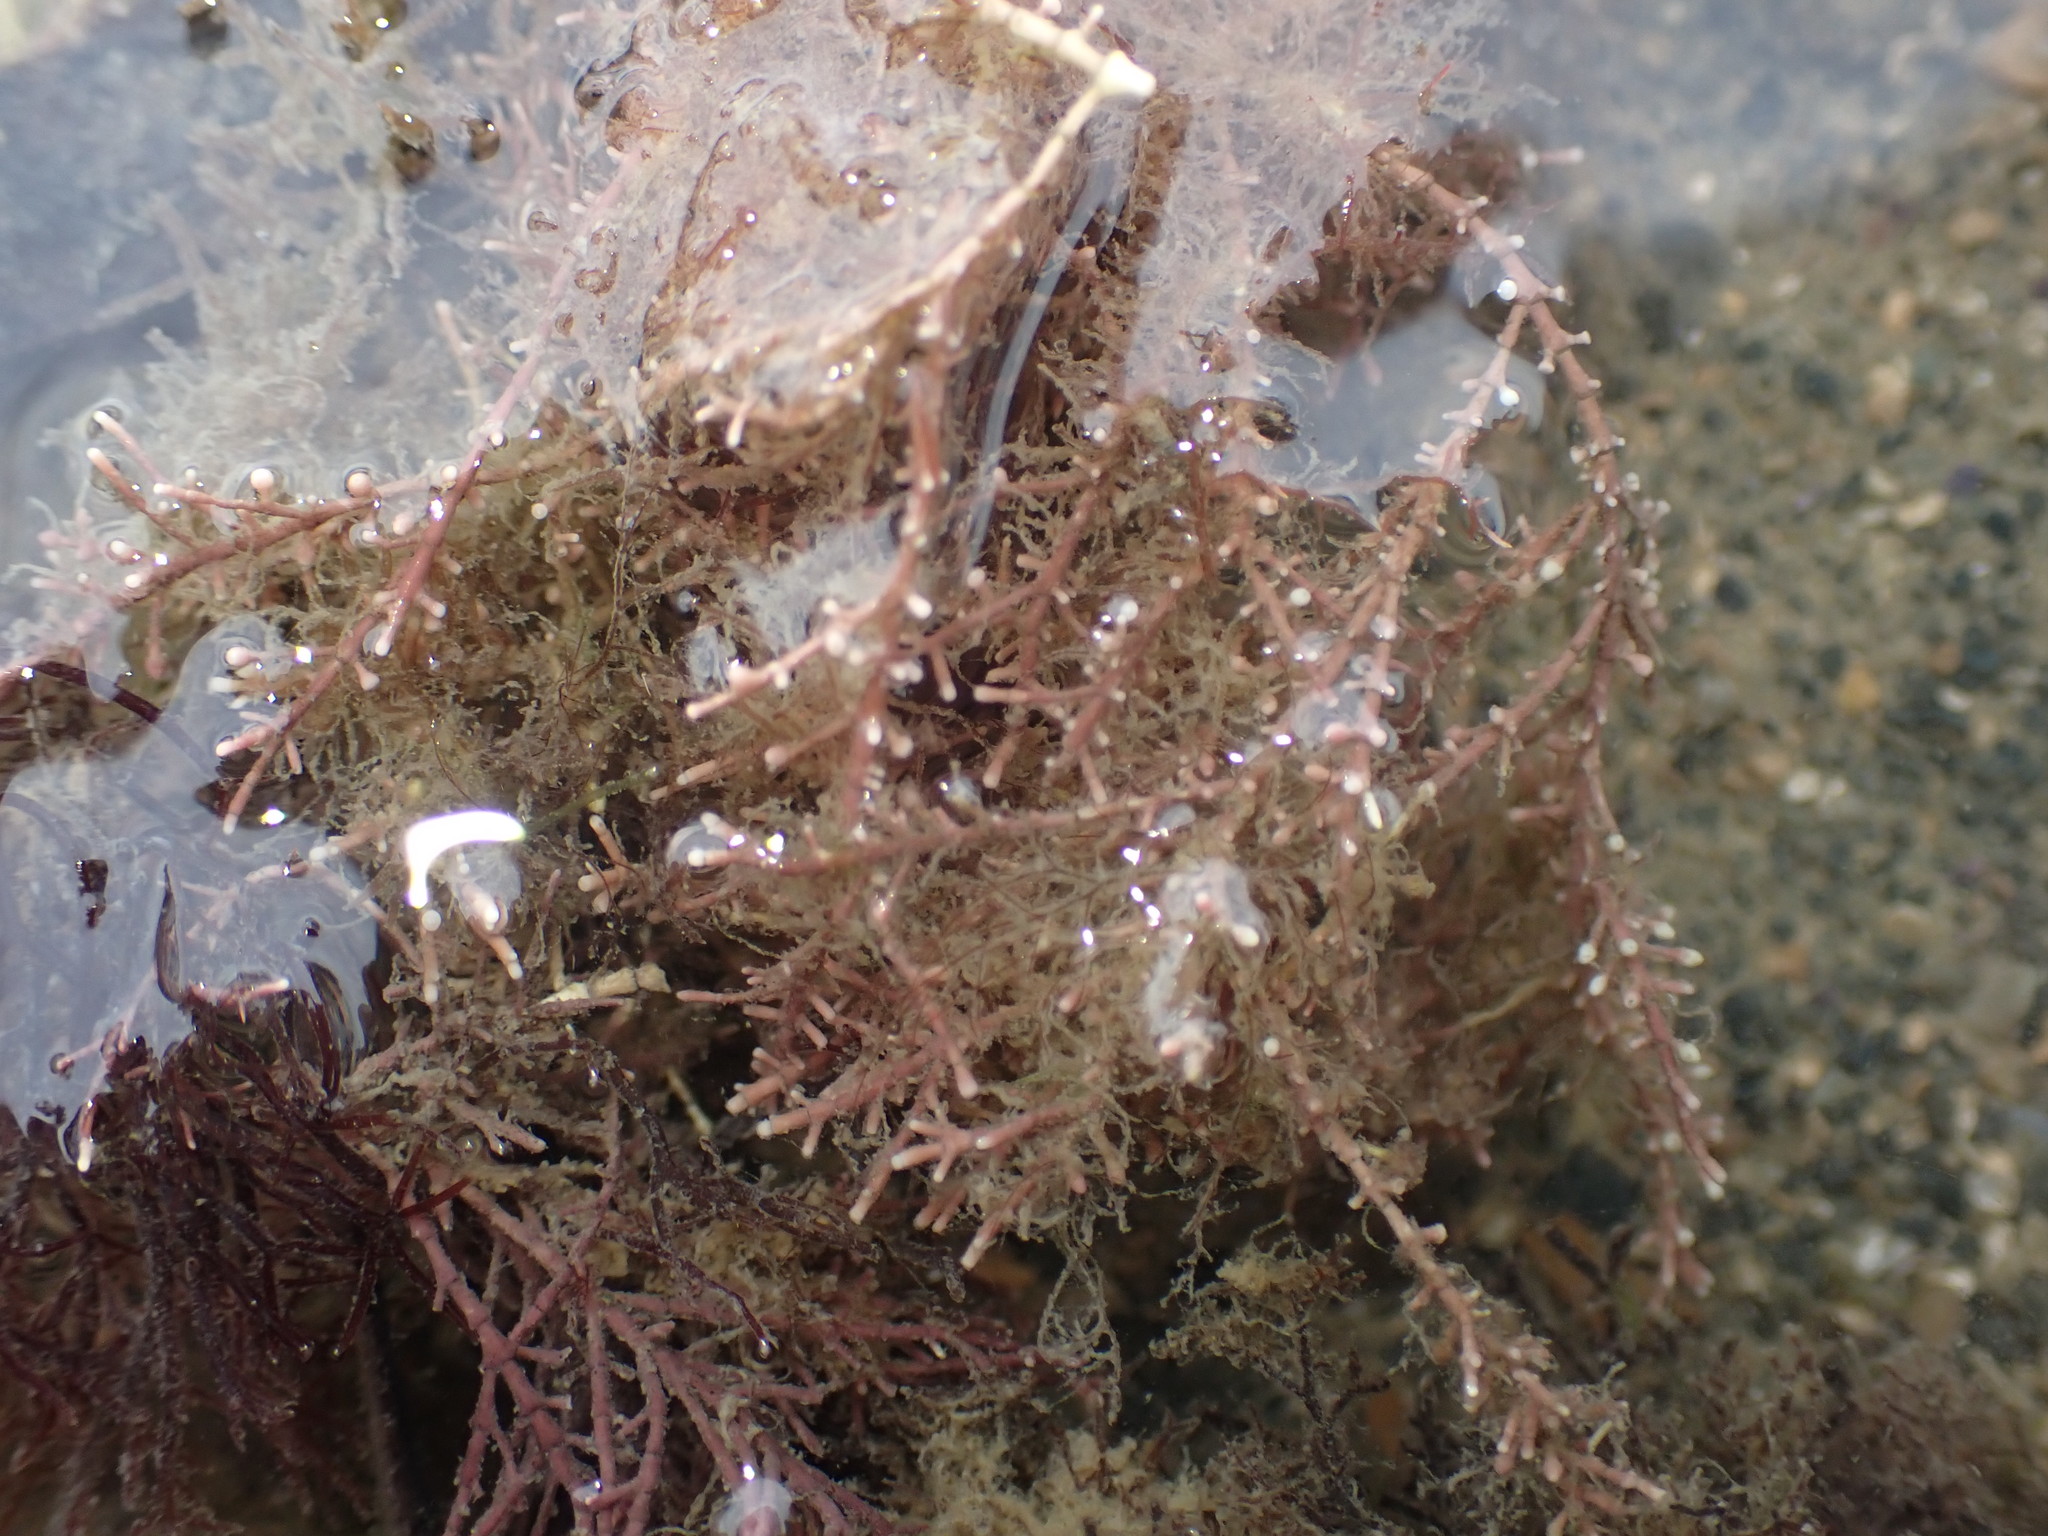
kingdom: Plantae
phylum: Rhodophyta
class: Florideophyceae
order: Corallinales
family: Corallinaceae
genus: Corallina
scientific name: Corallina officinalis
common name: Coral weed
